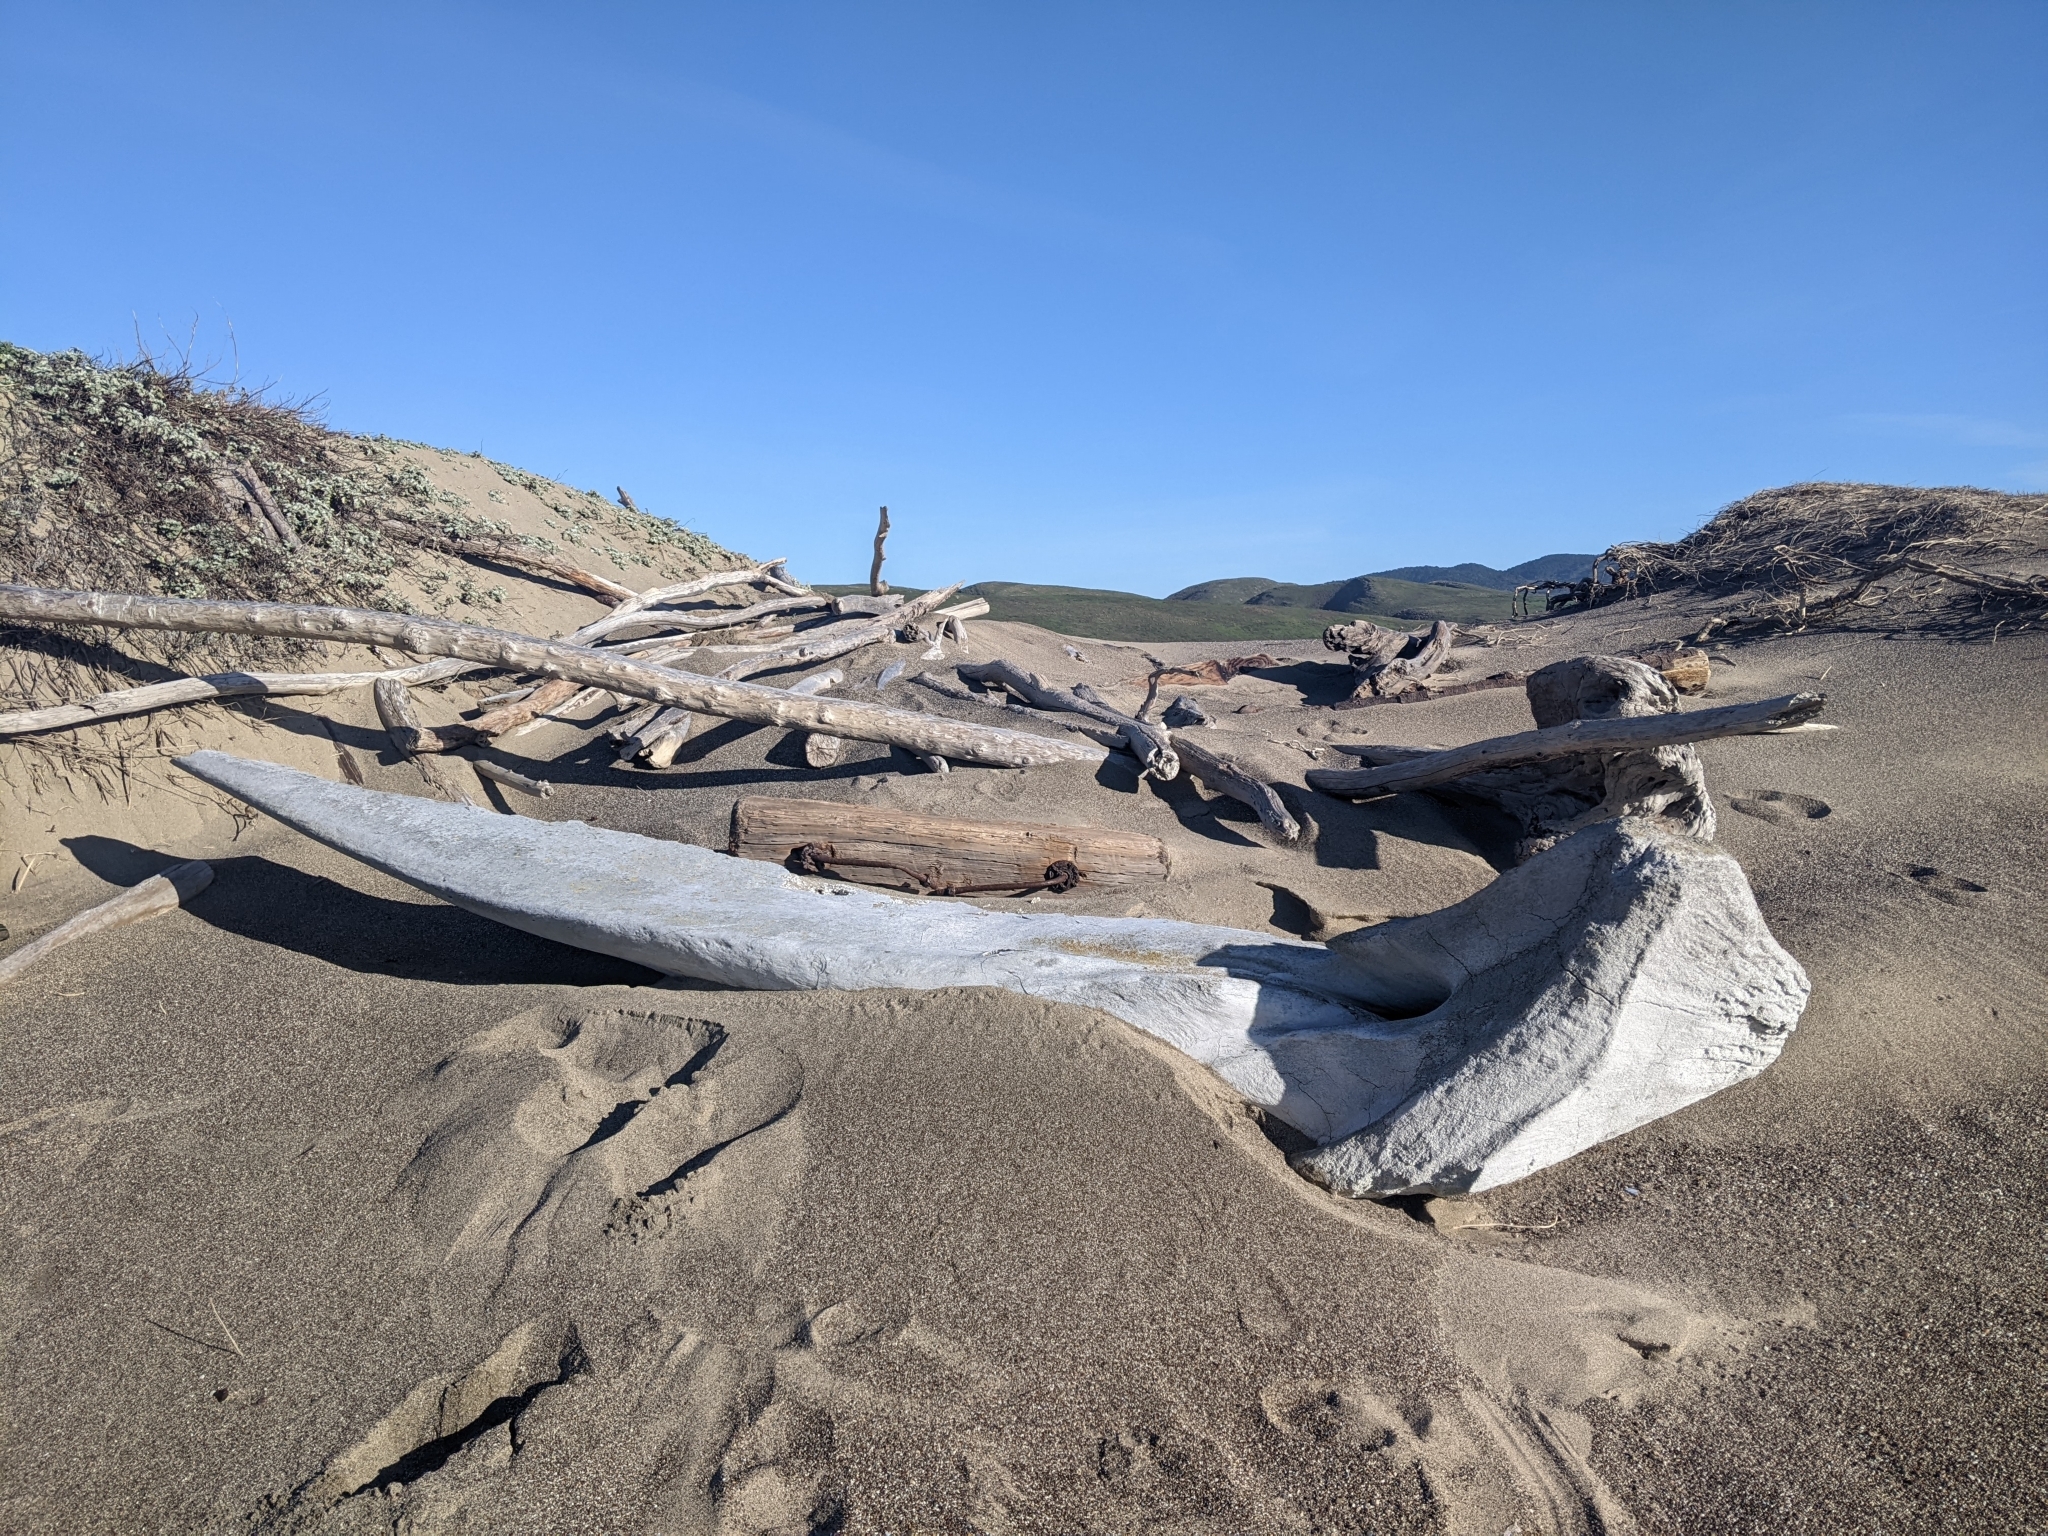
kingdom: Animalia
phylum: Chordata
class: Mammalia
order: Cetacea
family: Physeteridae
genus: Physeter
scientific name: Physeter macrocephalus
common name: Sperm whale
